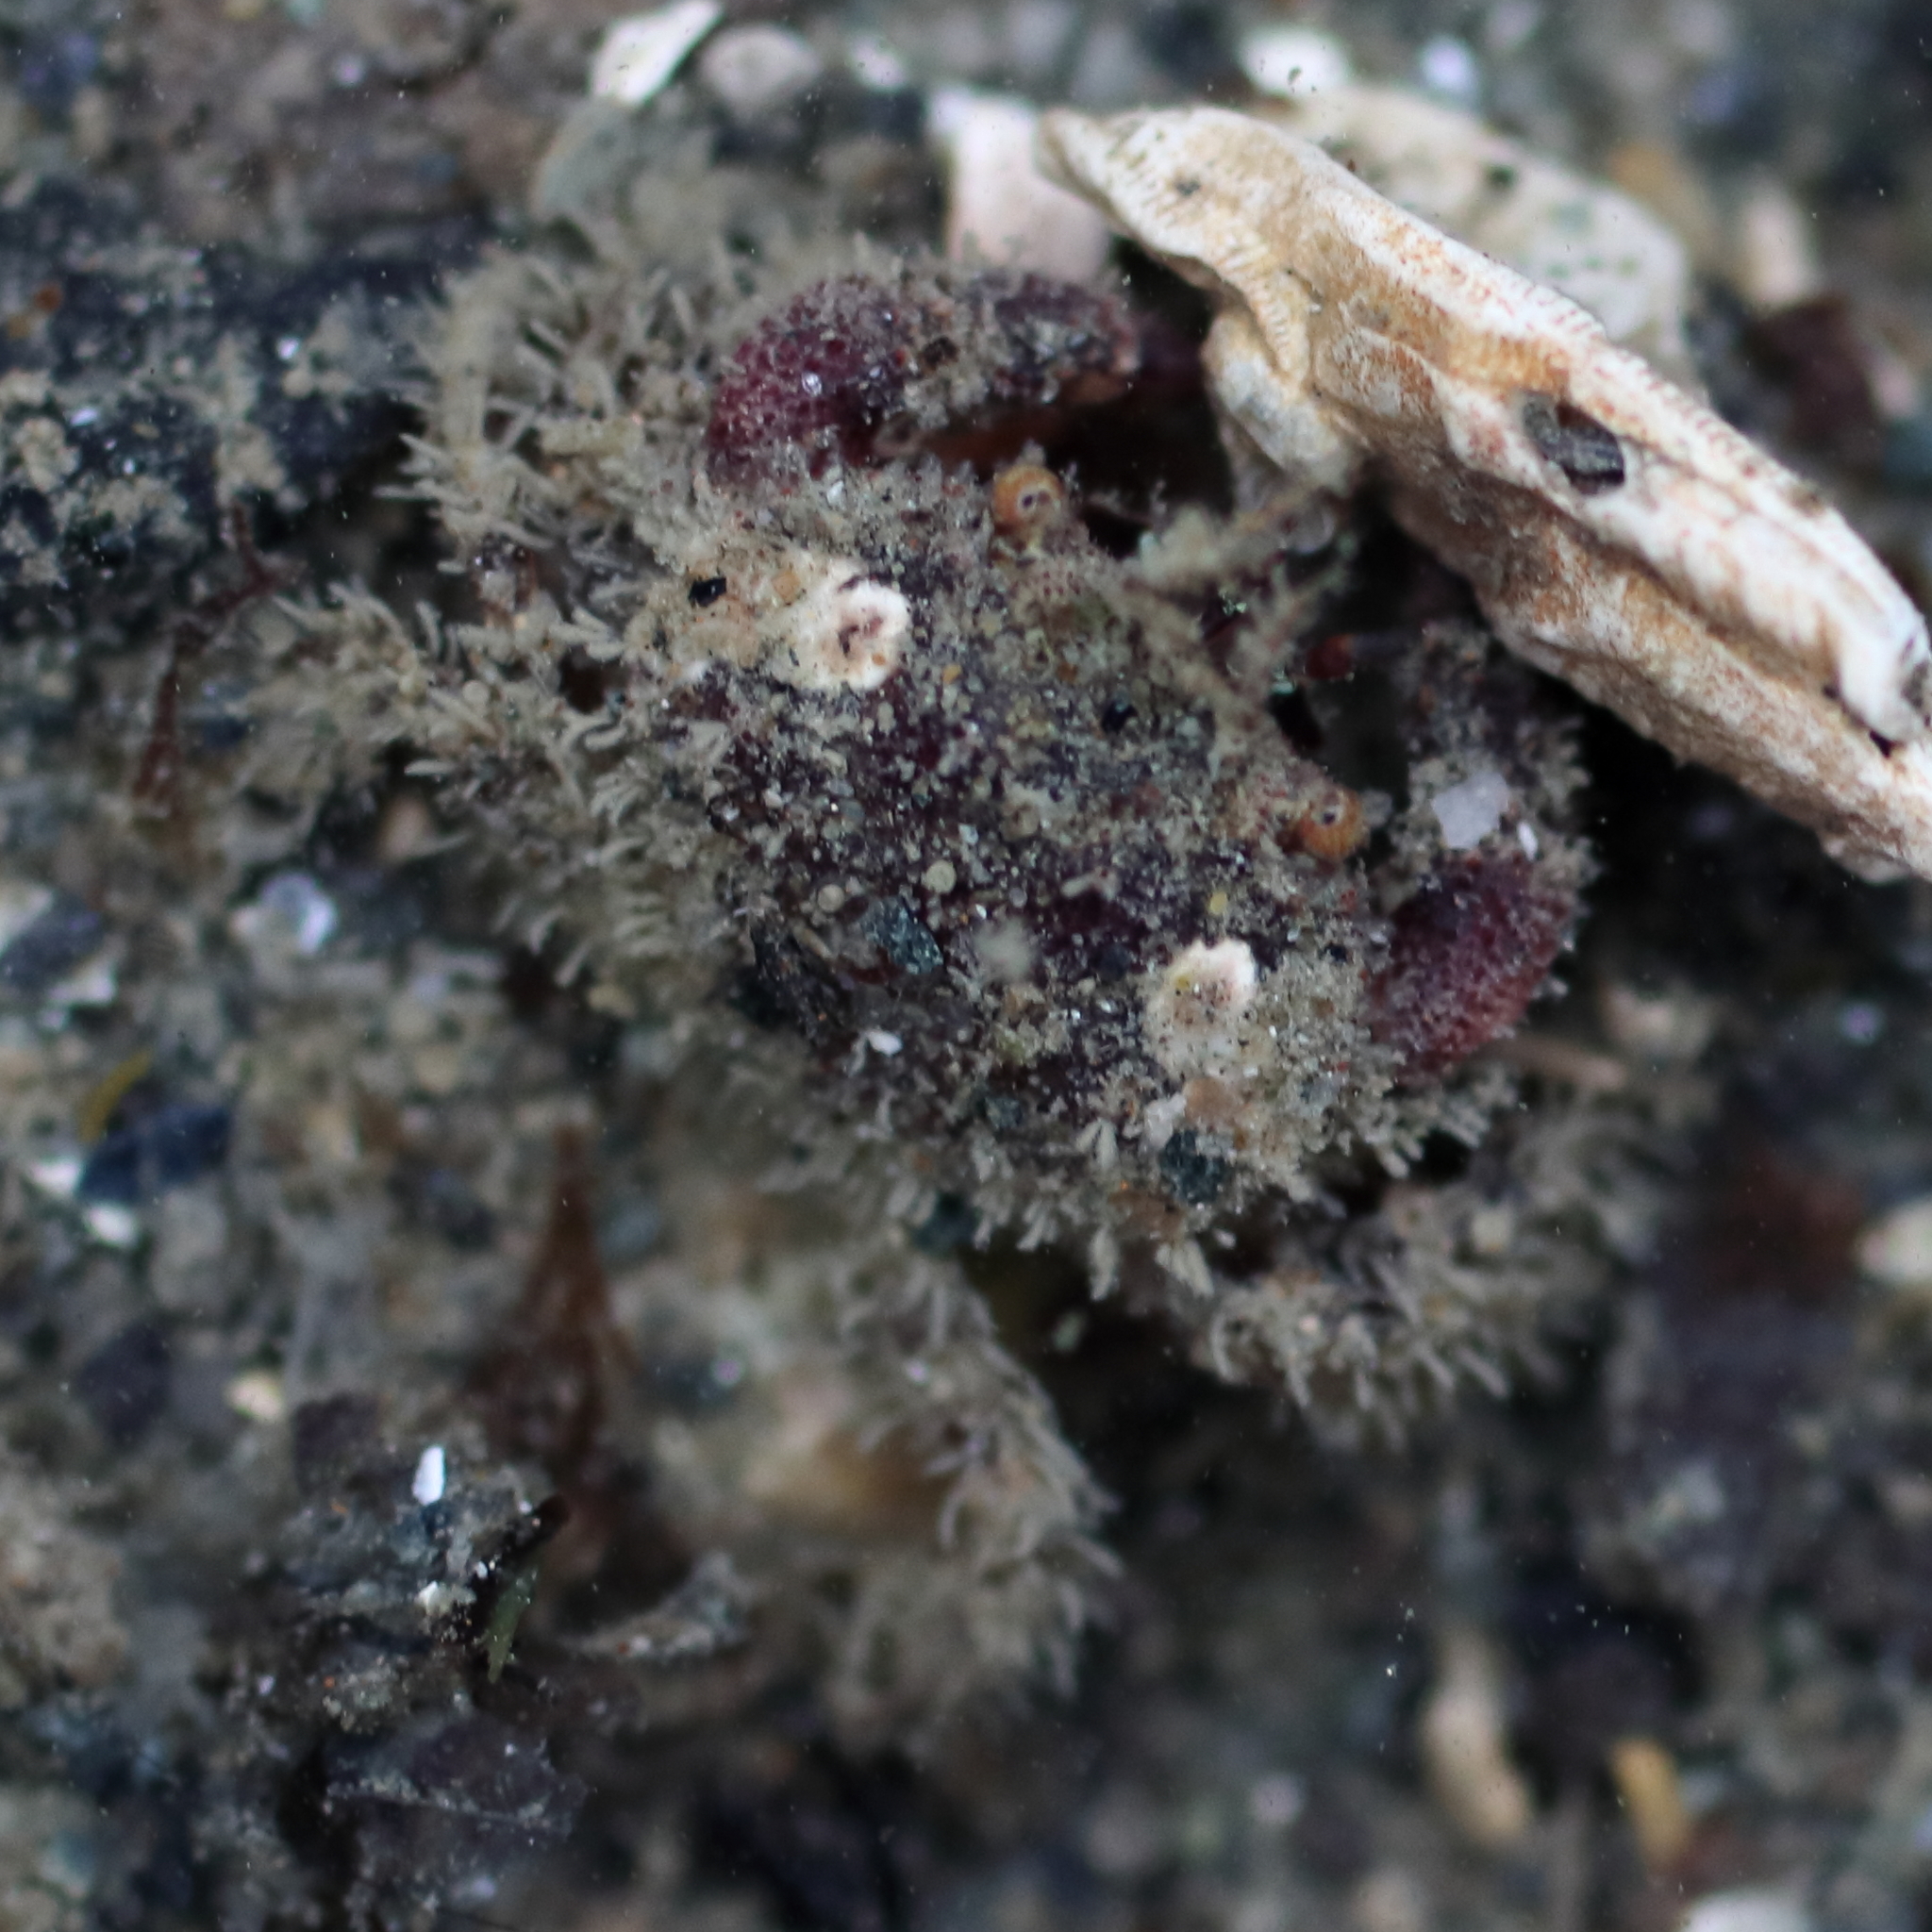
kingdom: Animalia
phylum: Arthropoda
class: Malacostraca
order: Decapoda
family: Cancridae
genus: Glebocarcinus
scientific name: Glebocarcinus oregonensis
